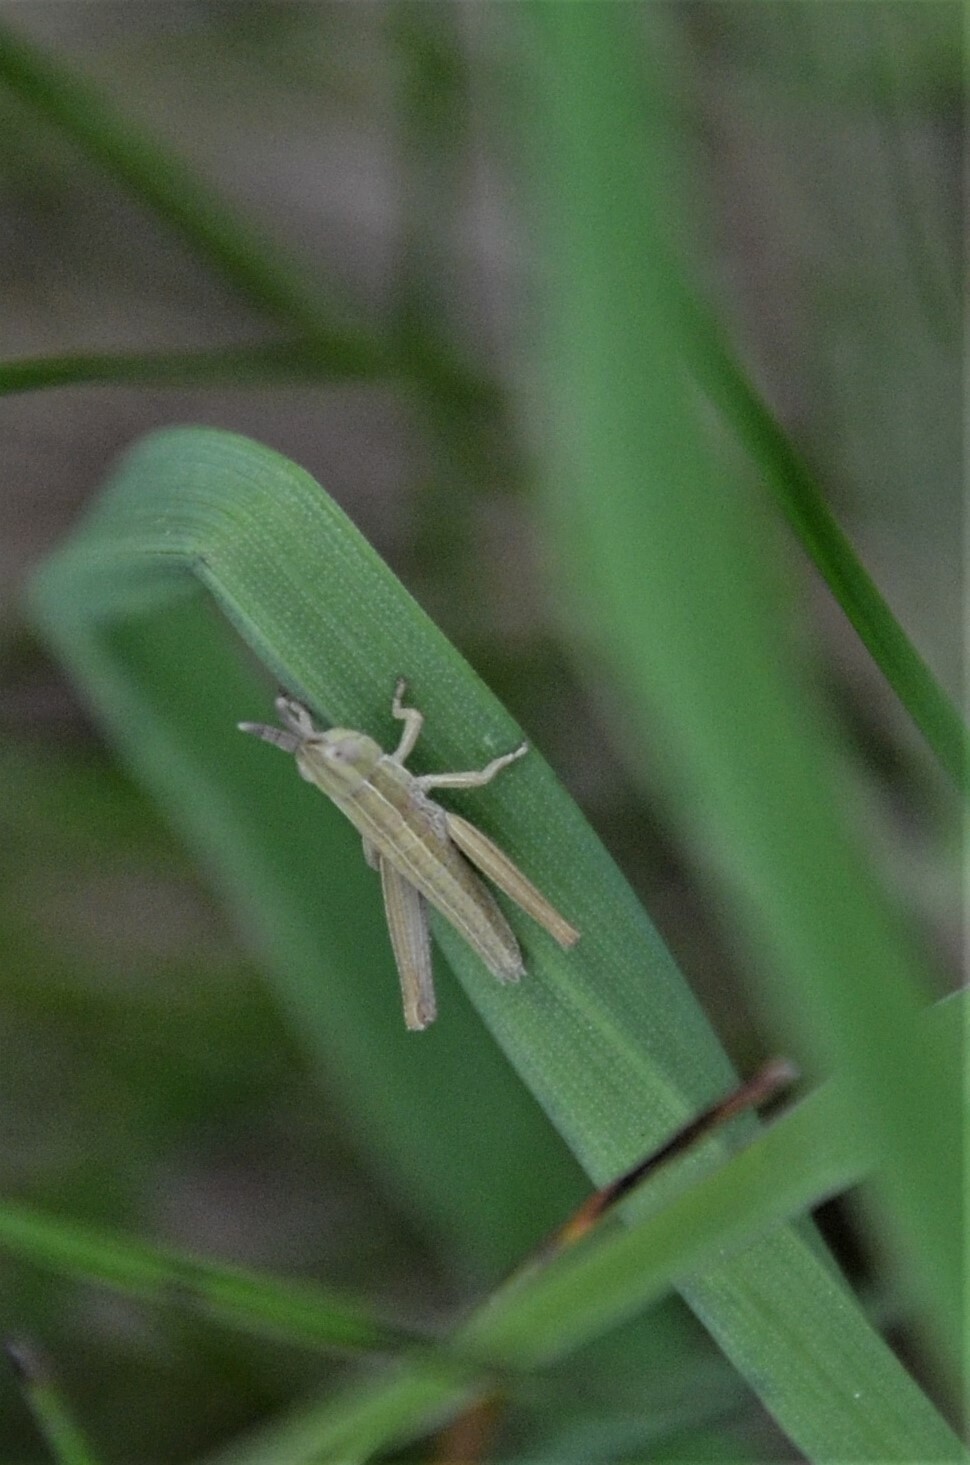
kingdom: Animalia
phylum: Arthropoda
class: Insecta
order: Orthoptera
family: Acrididae
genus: Euthystira
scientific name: Euthystira brachyptera
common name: Small gold grasshopper
